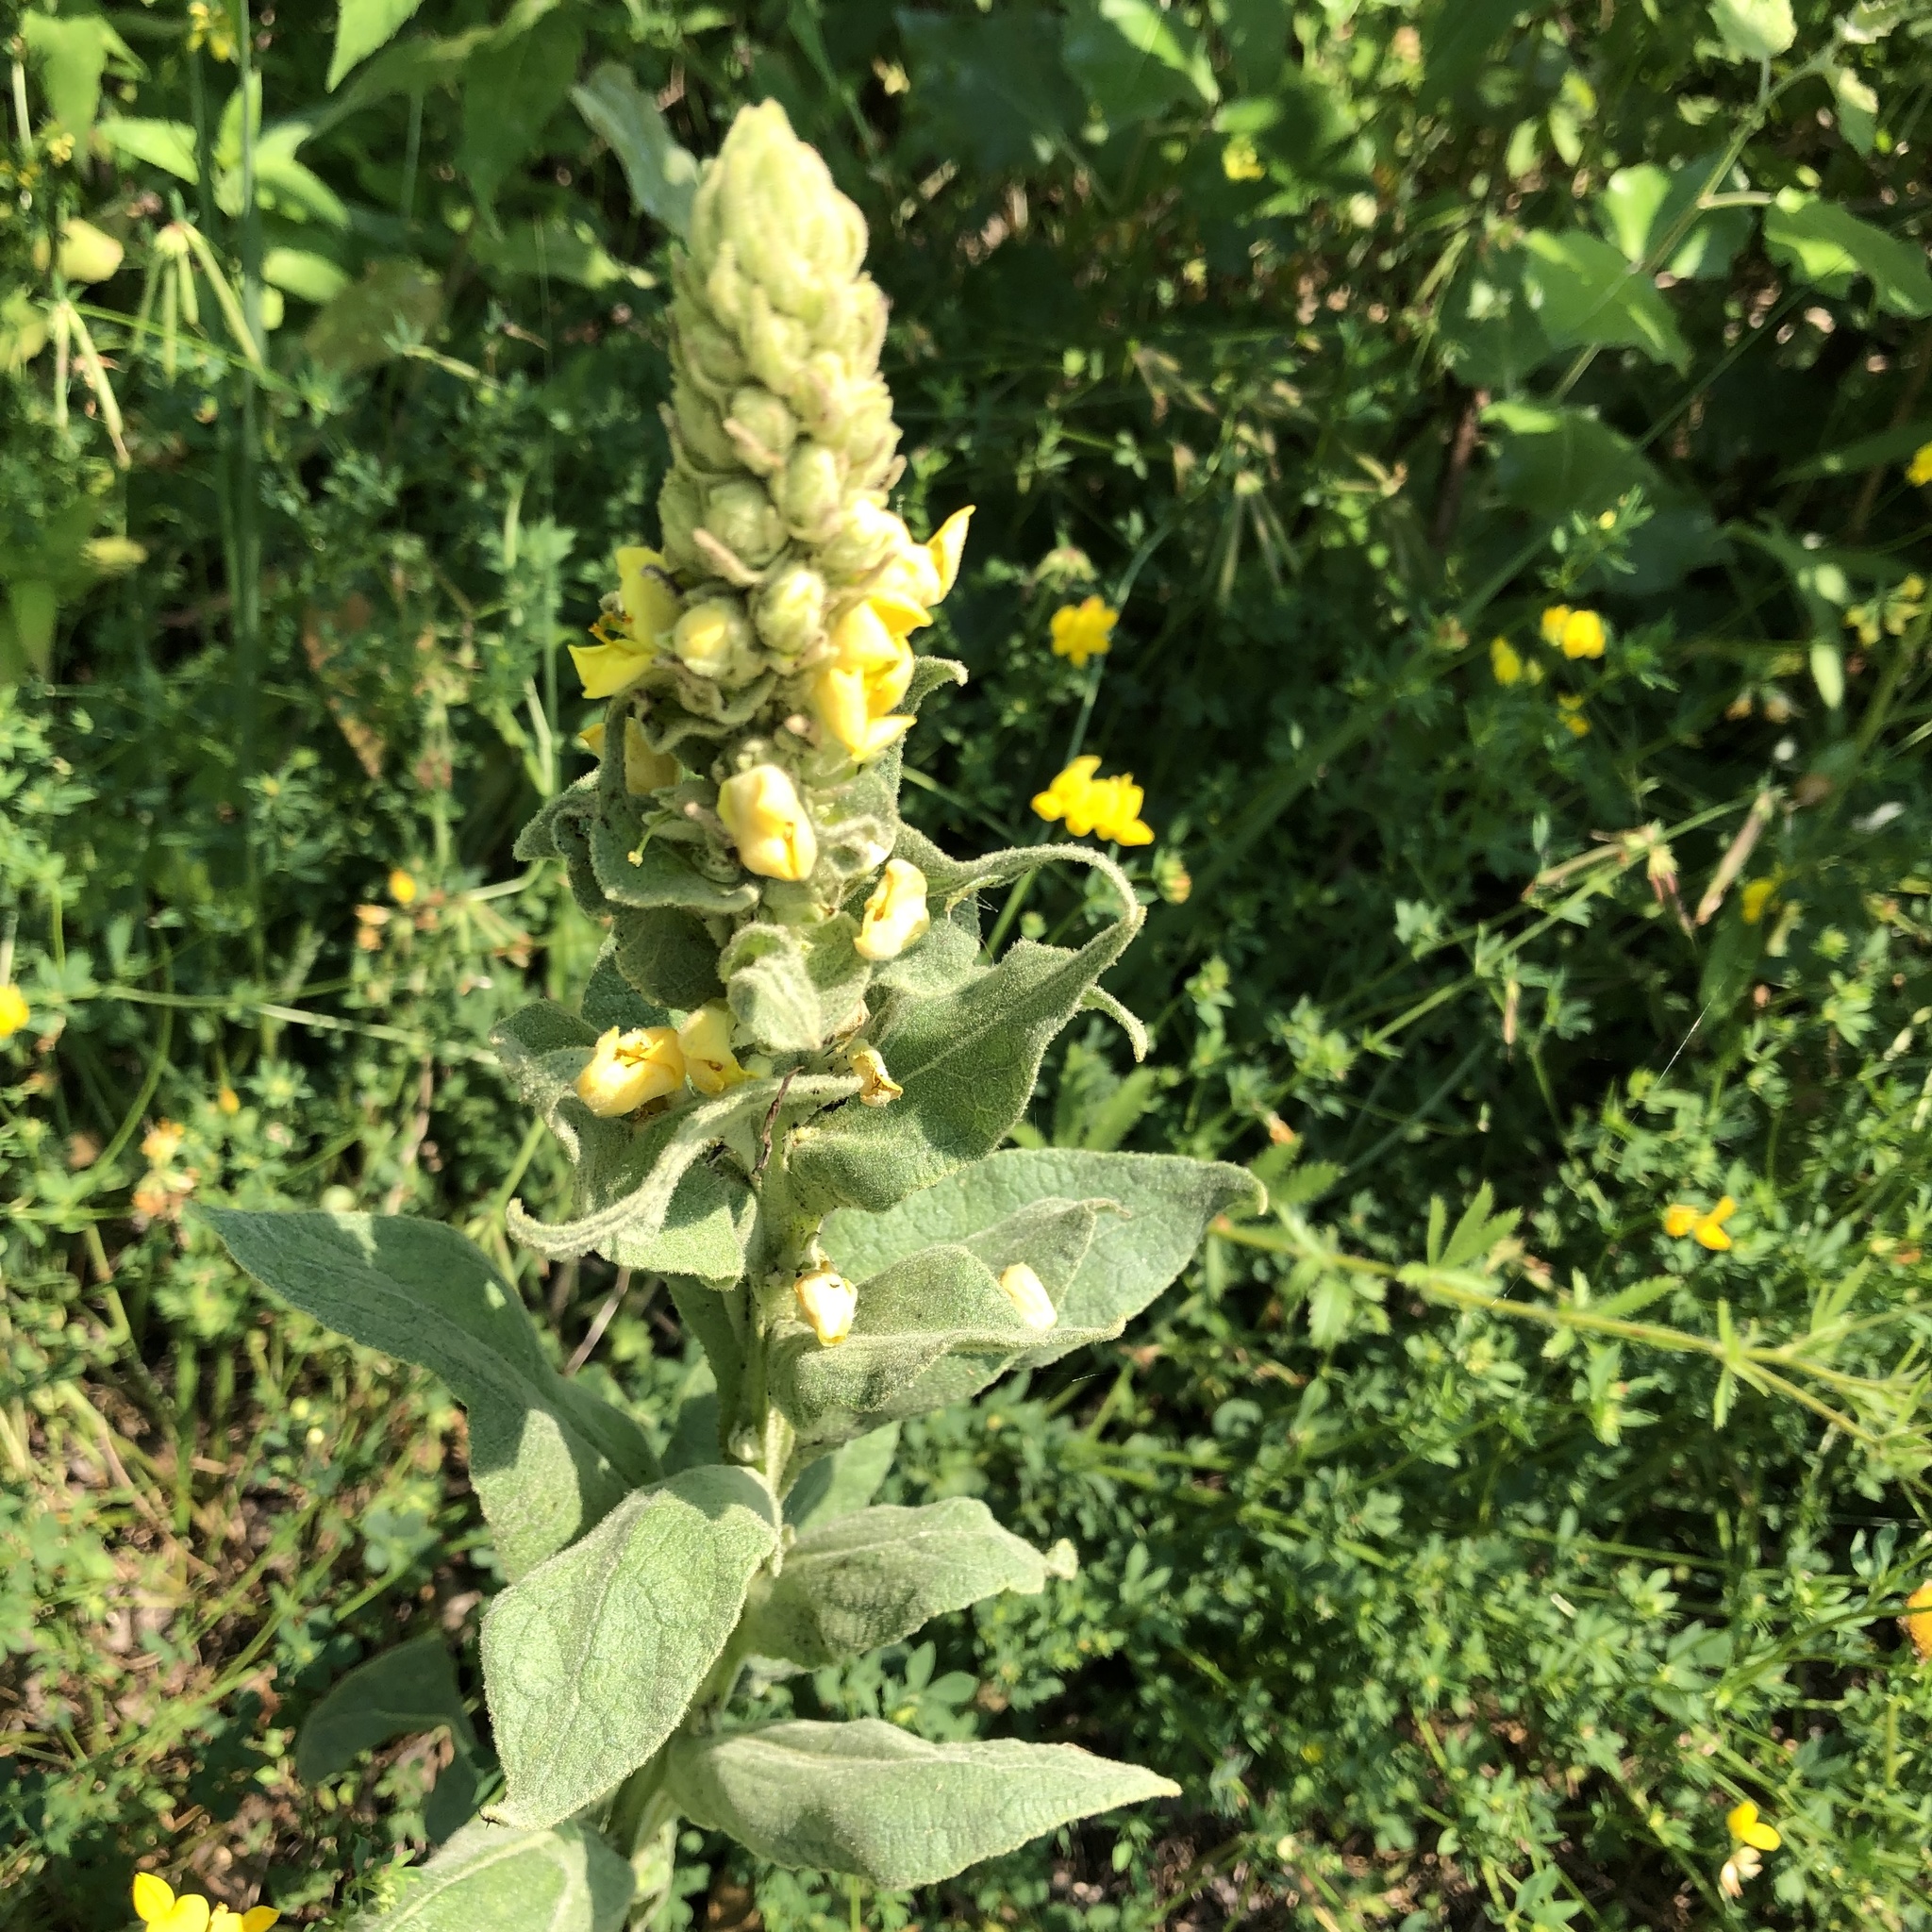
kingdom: Plantae
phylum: Tracheophyta
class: Magnoliopsida
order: Lamiales
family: Scrophulariaceae
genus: Verbascum
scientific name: Verbascum thapsus
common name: Common mullein
